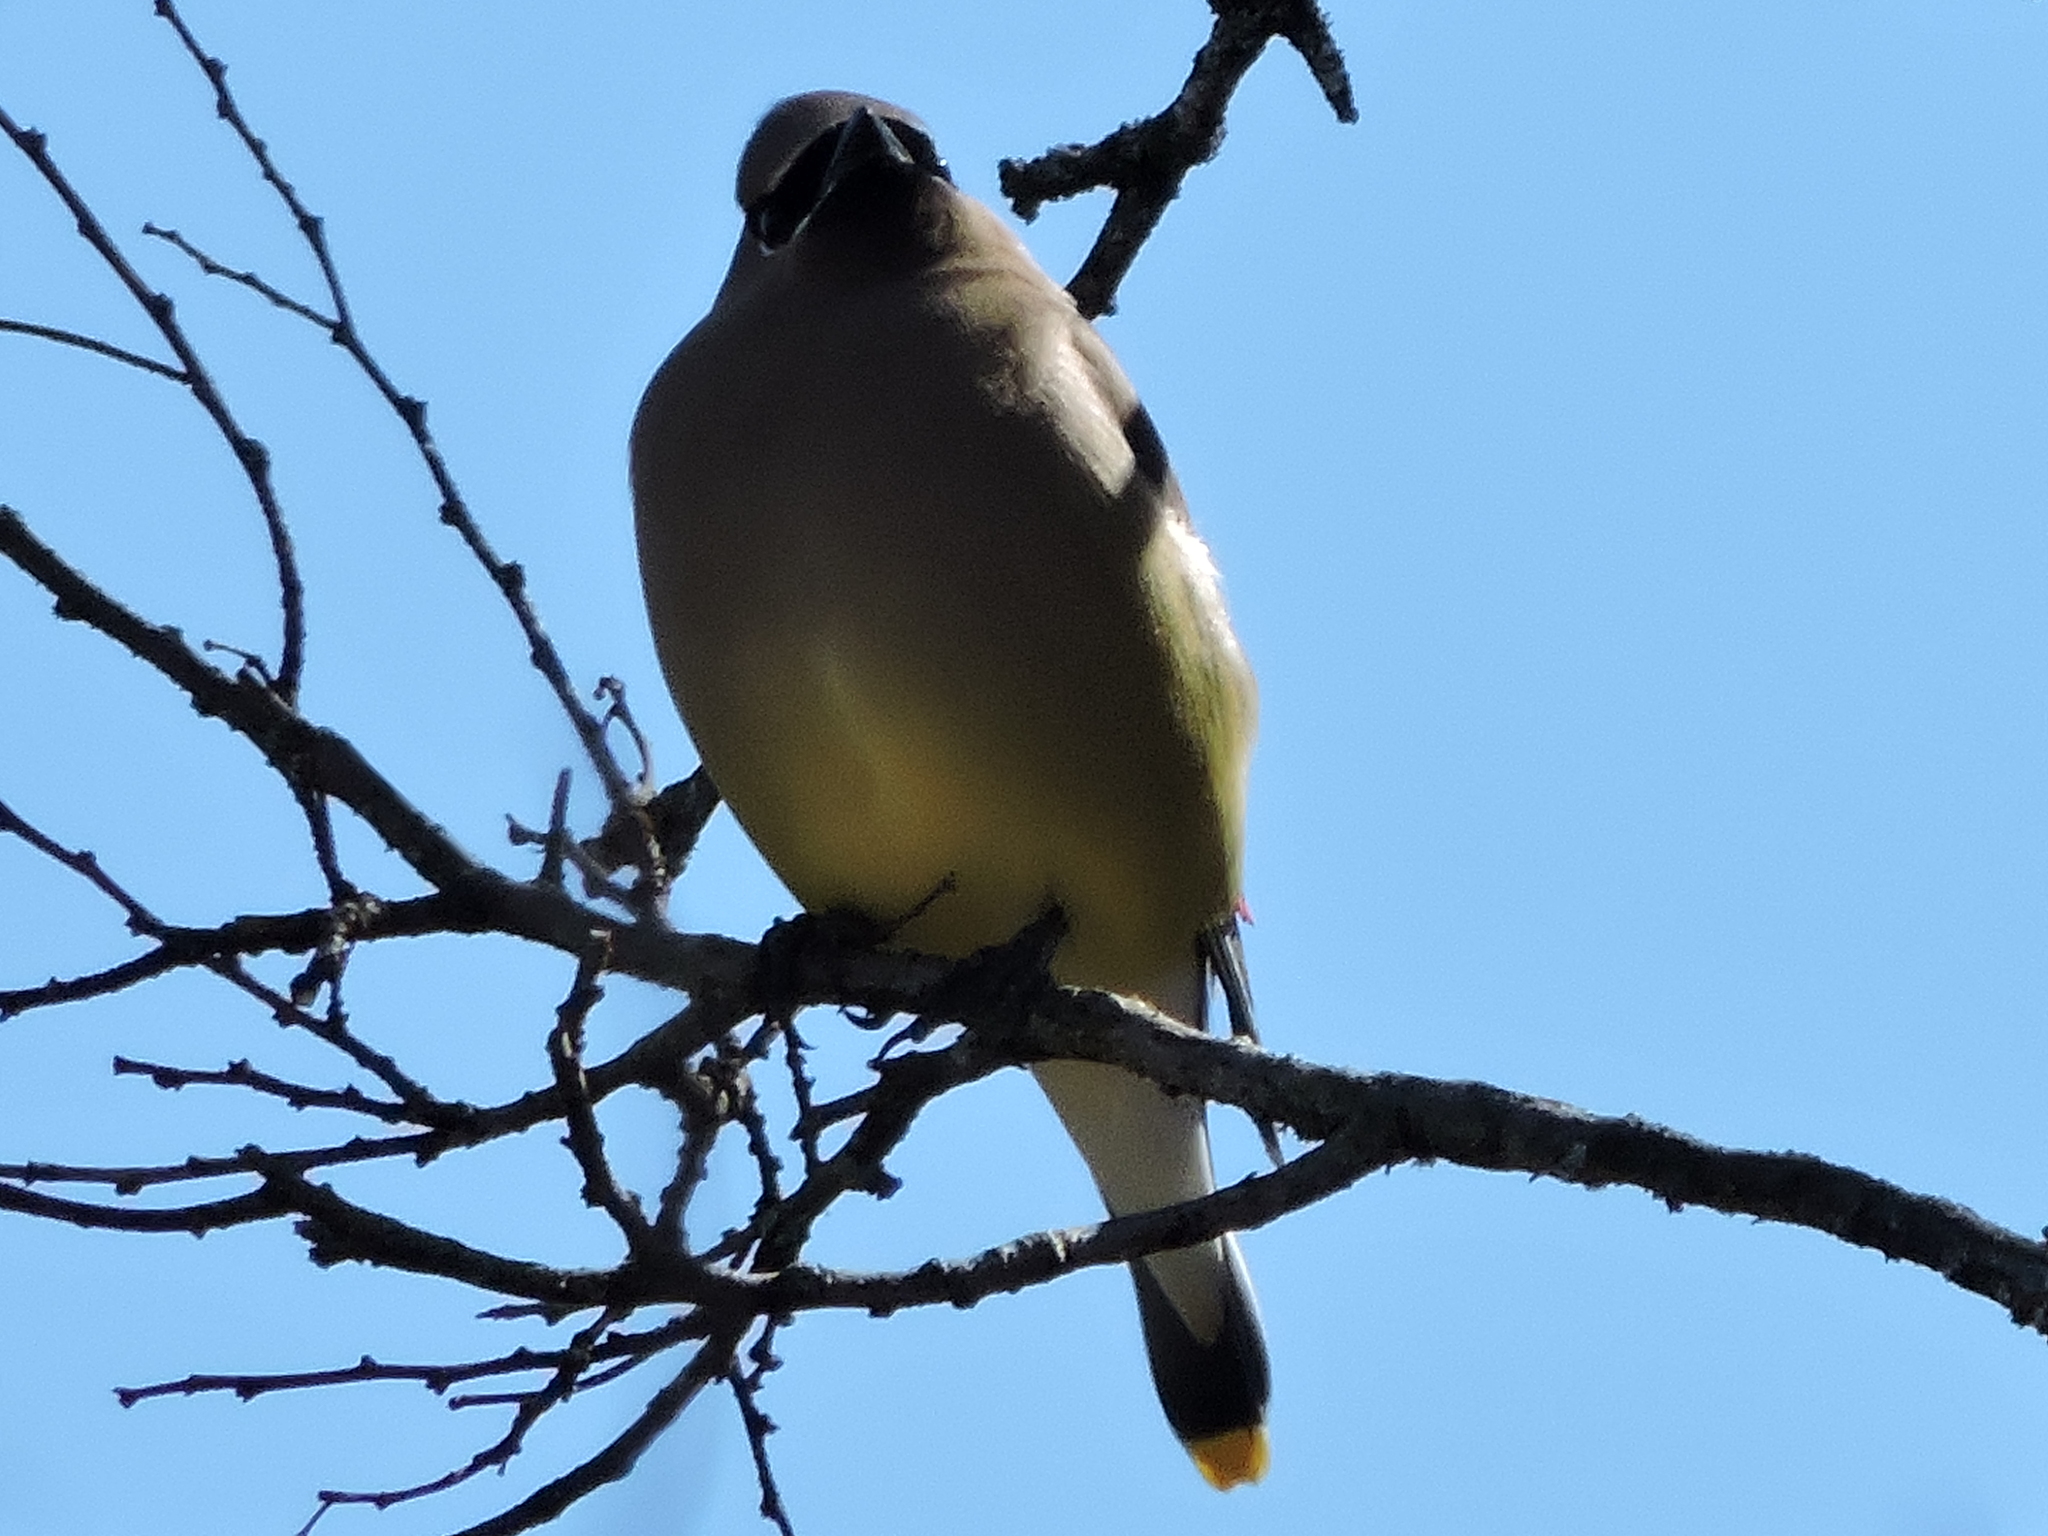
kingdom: Animalia
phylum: Chordata
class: Aves
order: Passeriformes
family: Bombycillidae
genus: Bombycilla
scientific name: Bombycilla cedrorum
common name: Cedar waxwing
